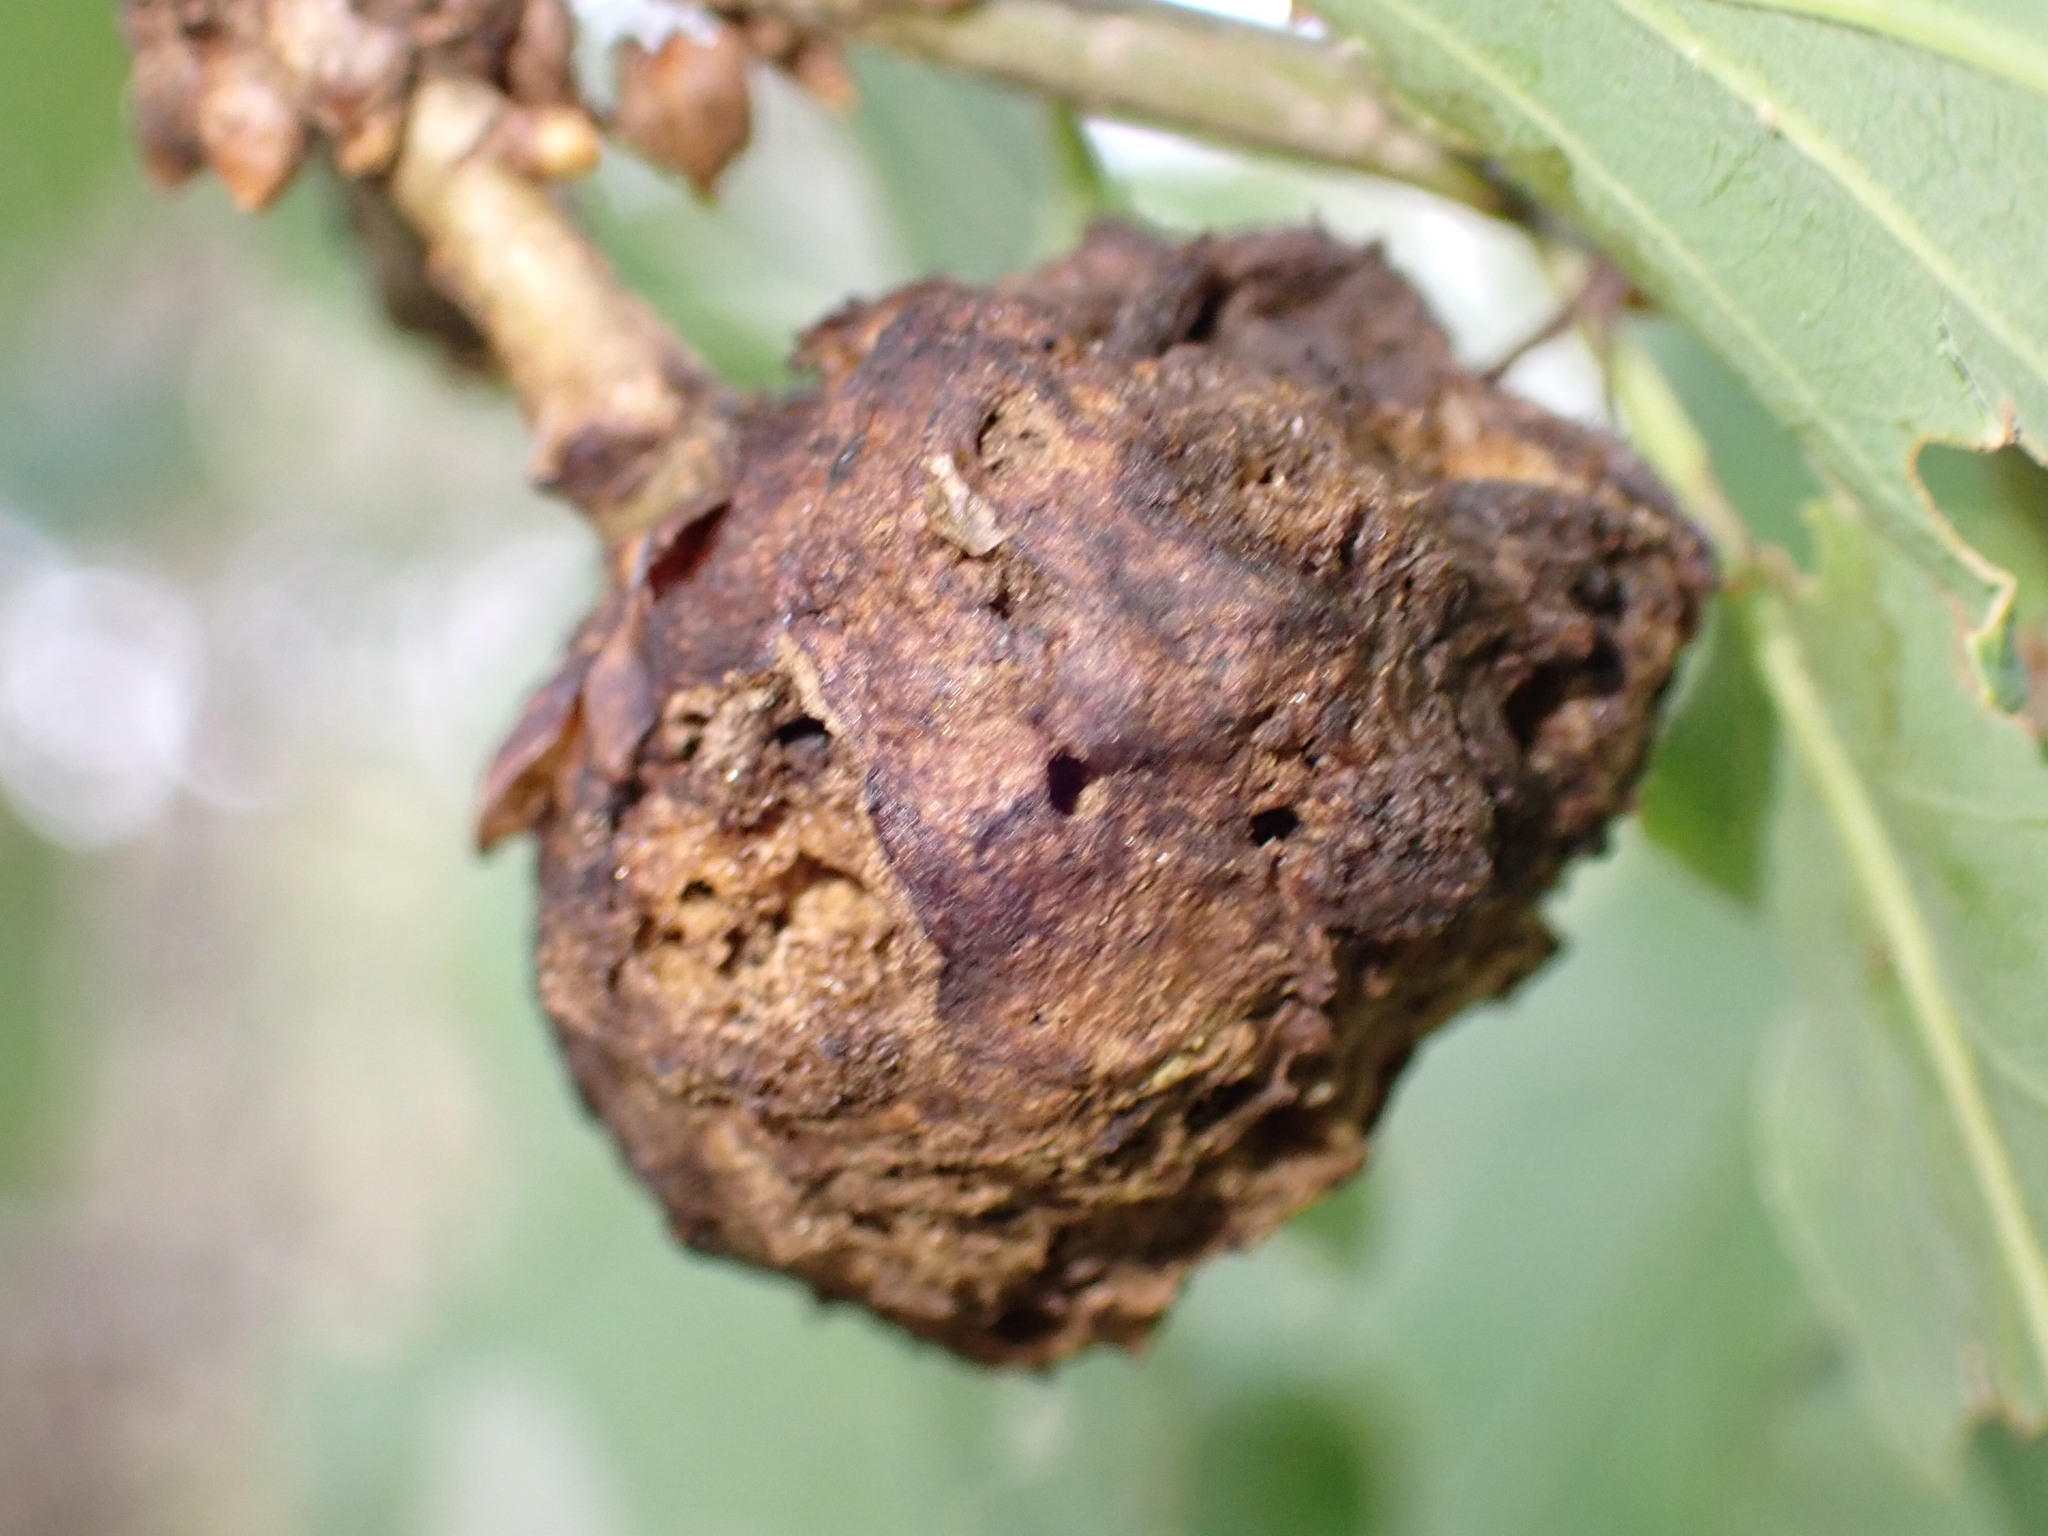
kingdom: Animalia
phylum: Arthropoda
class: Insecta
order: Hymenoptera
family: Cynipidae
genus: Biorhiza
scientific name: Biorhiza pallida
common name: Oak apple
